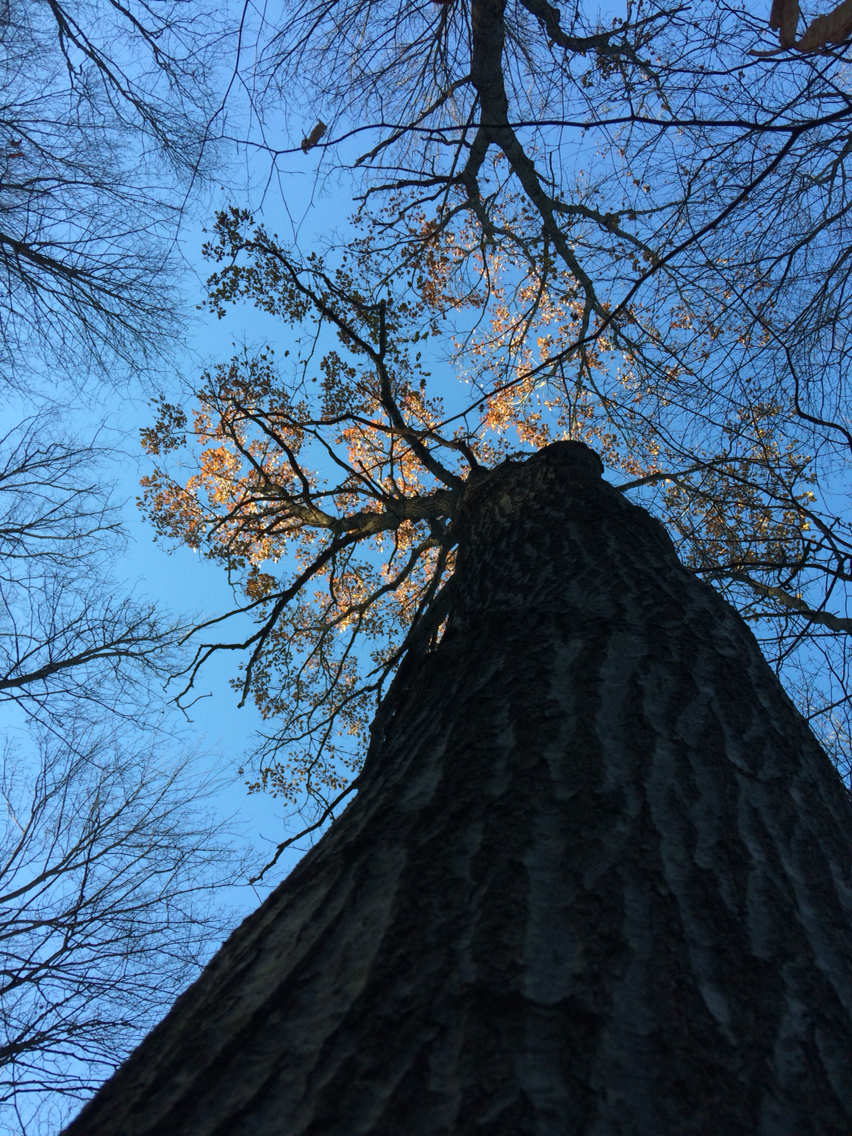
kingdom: Plantae
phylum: Tracheophyta
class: Magnoliopsida
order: Fagales
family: Fagaceae
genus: Quercus
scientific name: Quercus rubra
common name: Red oak
